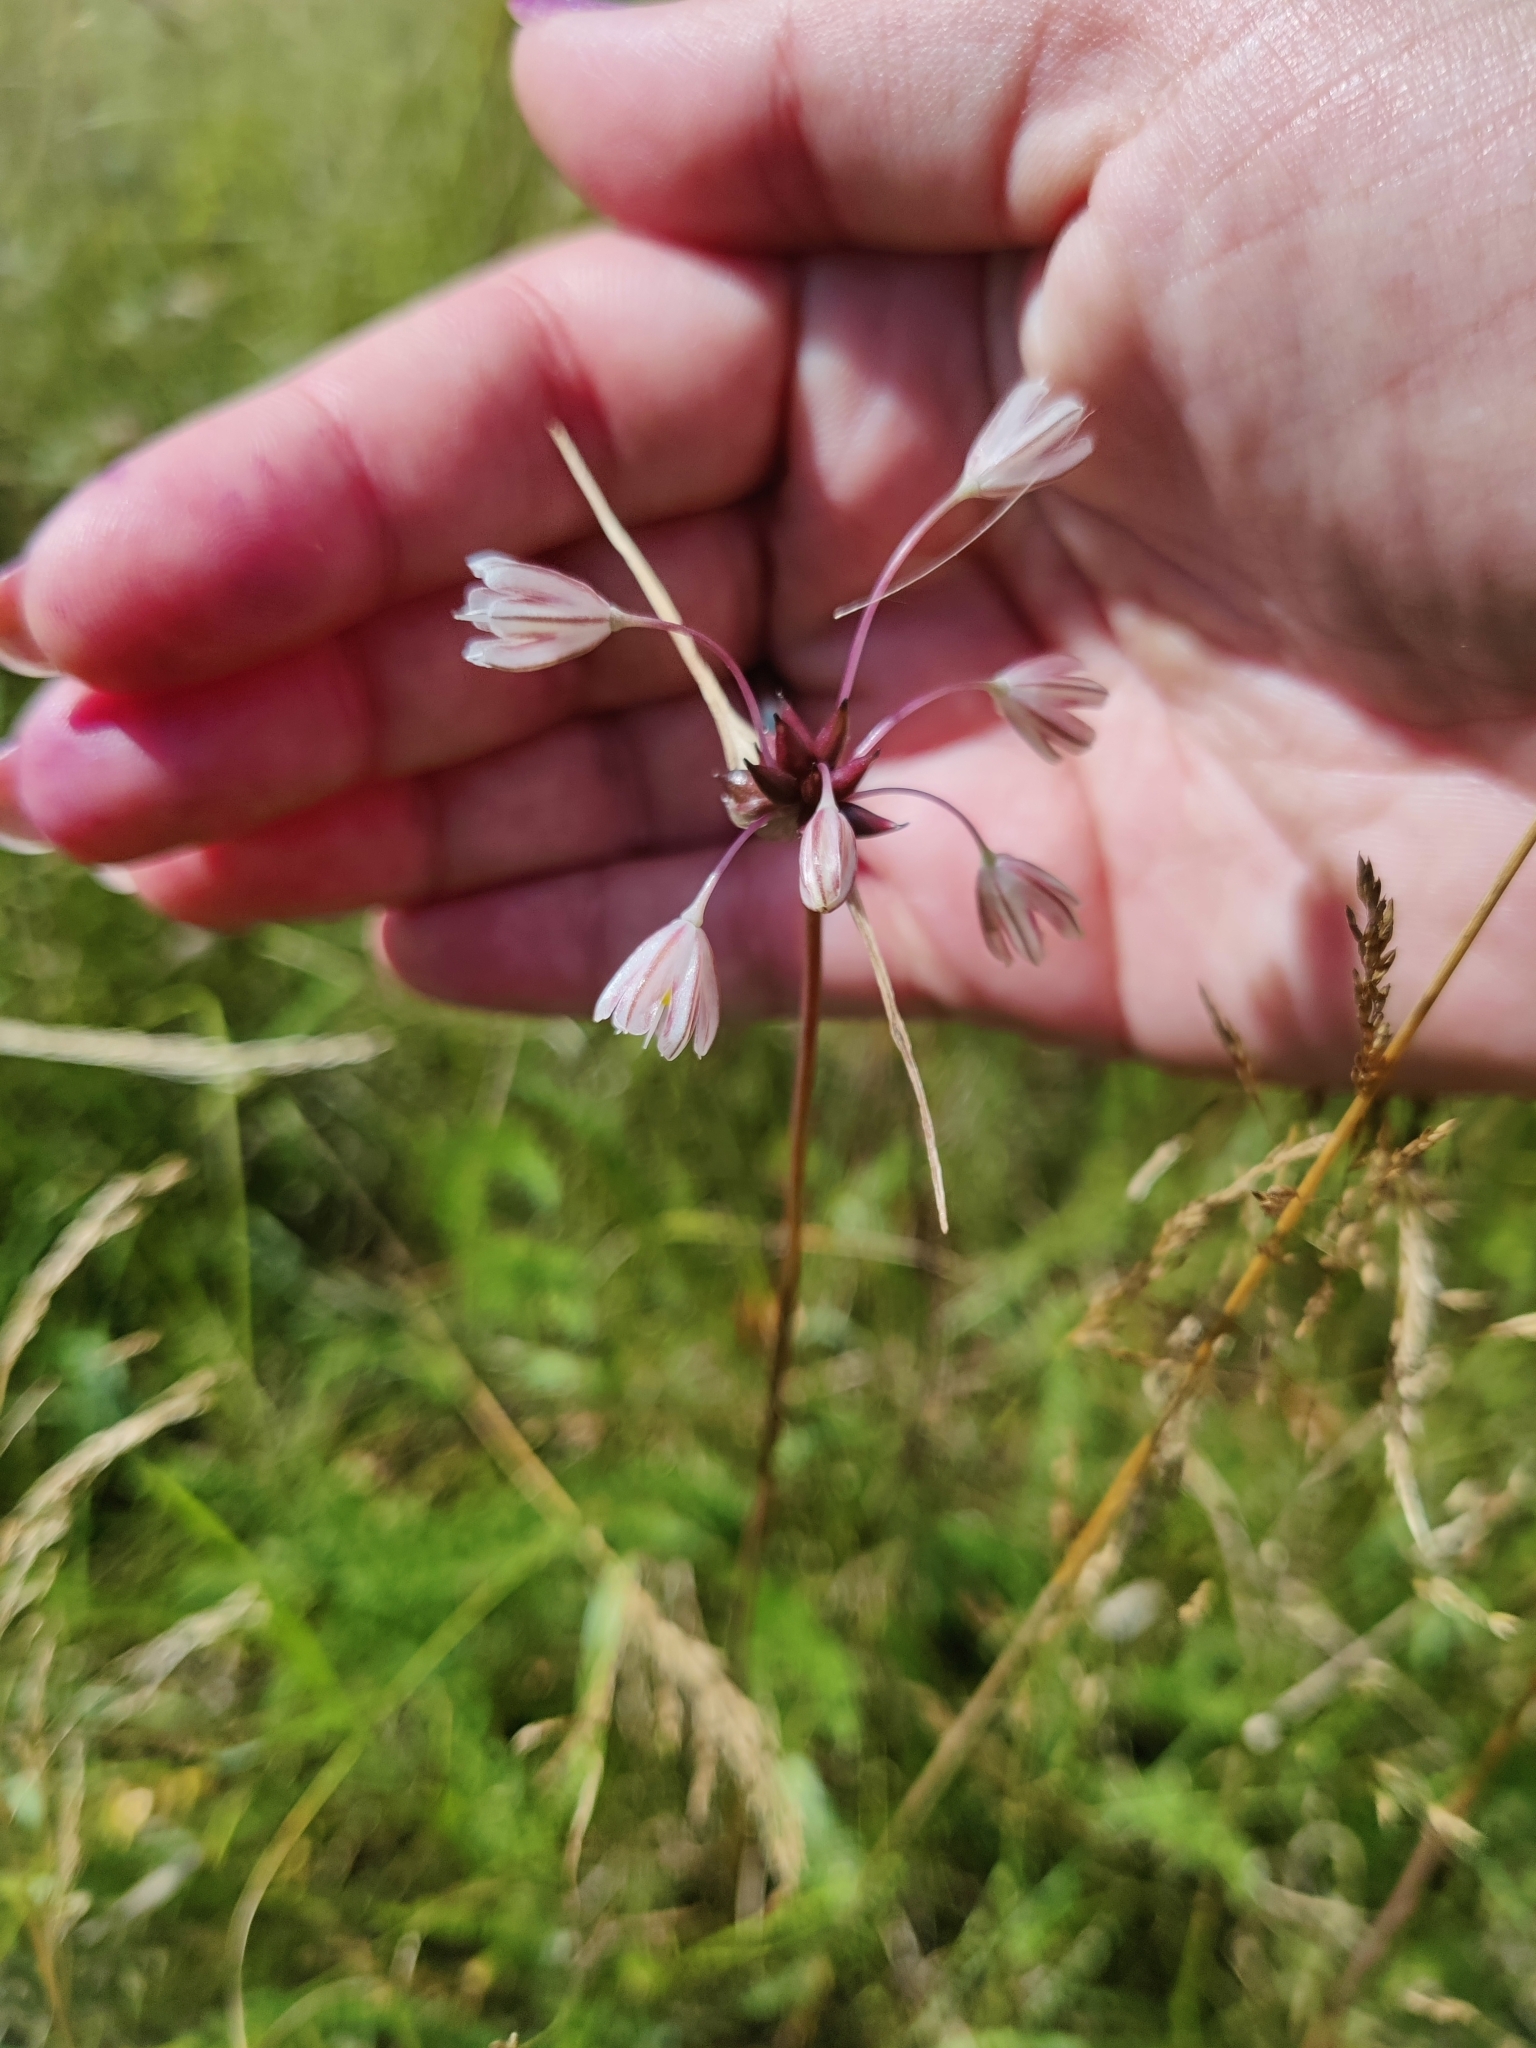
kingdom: Plantae
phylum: Tracheophyta
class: Liliopsida
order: Asparagales
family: Amaryllidaceae
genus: Allium
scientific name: Allium oleraceum
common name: Field garlic
